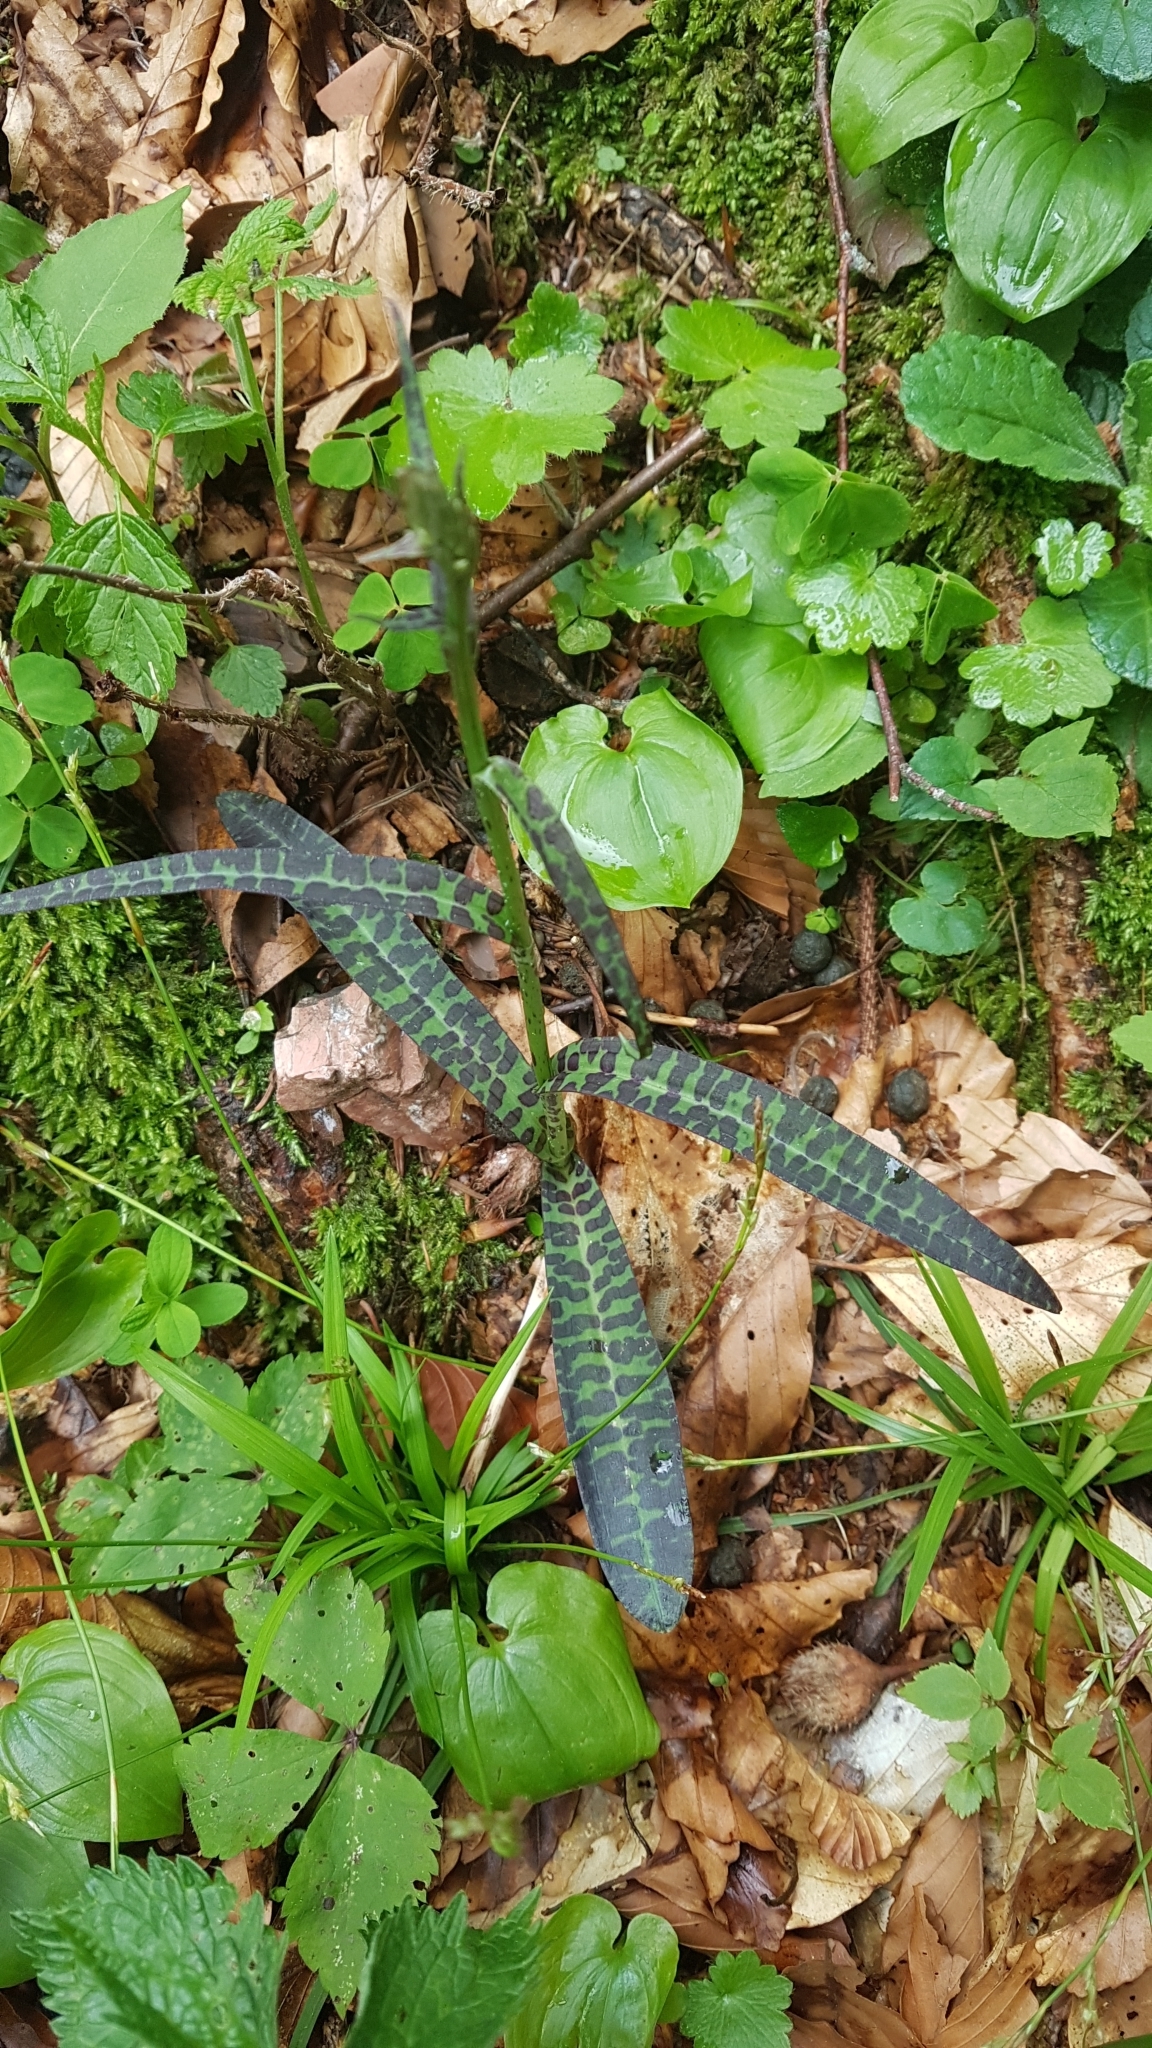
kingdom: Plantae
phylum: Tracheophyta
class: Liliopsida
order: Asparagales
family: Orchidaceae
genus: Dactylorhiza
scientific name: Dactylorhiza maculata
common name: Heath spotted-orchid
